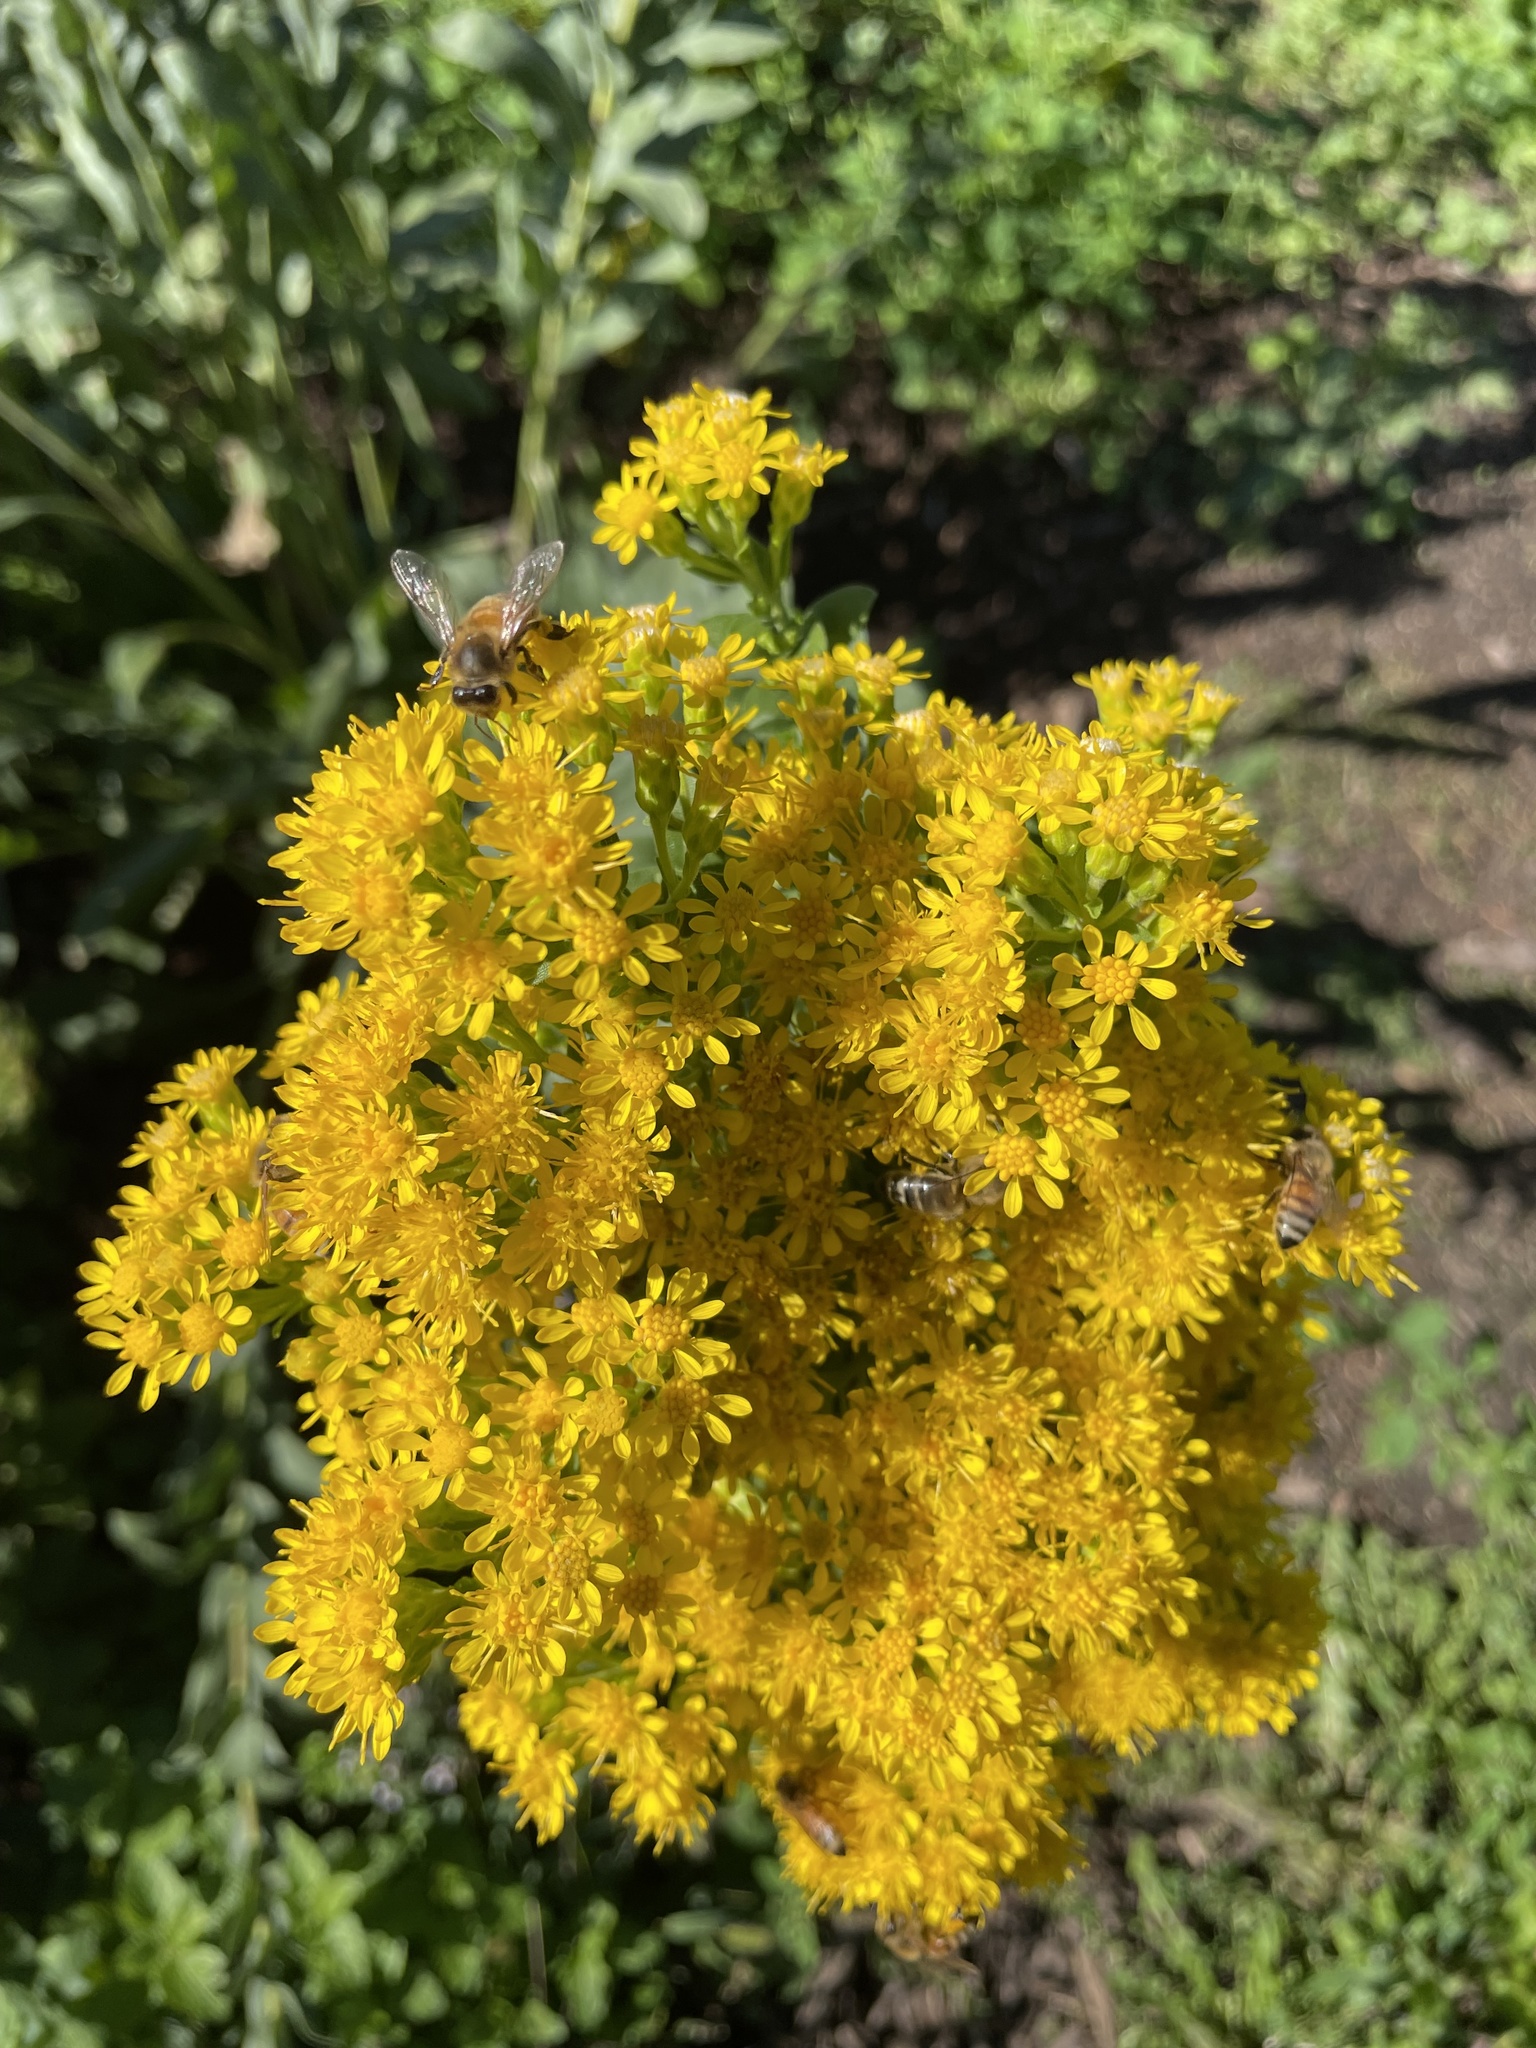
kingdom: Animalia
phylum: Arthropoda
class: Insecta
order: Hymenoptera
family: Apidae
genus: Apis
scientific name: Apis mellifera
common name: Honey bee
